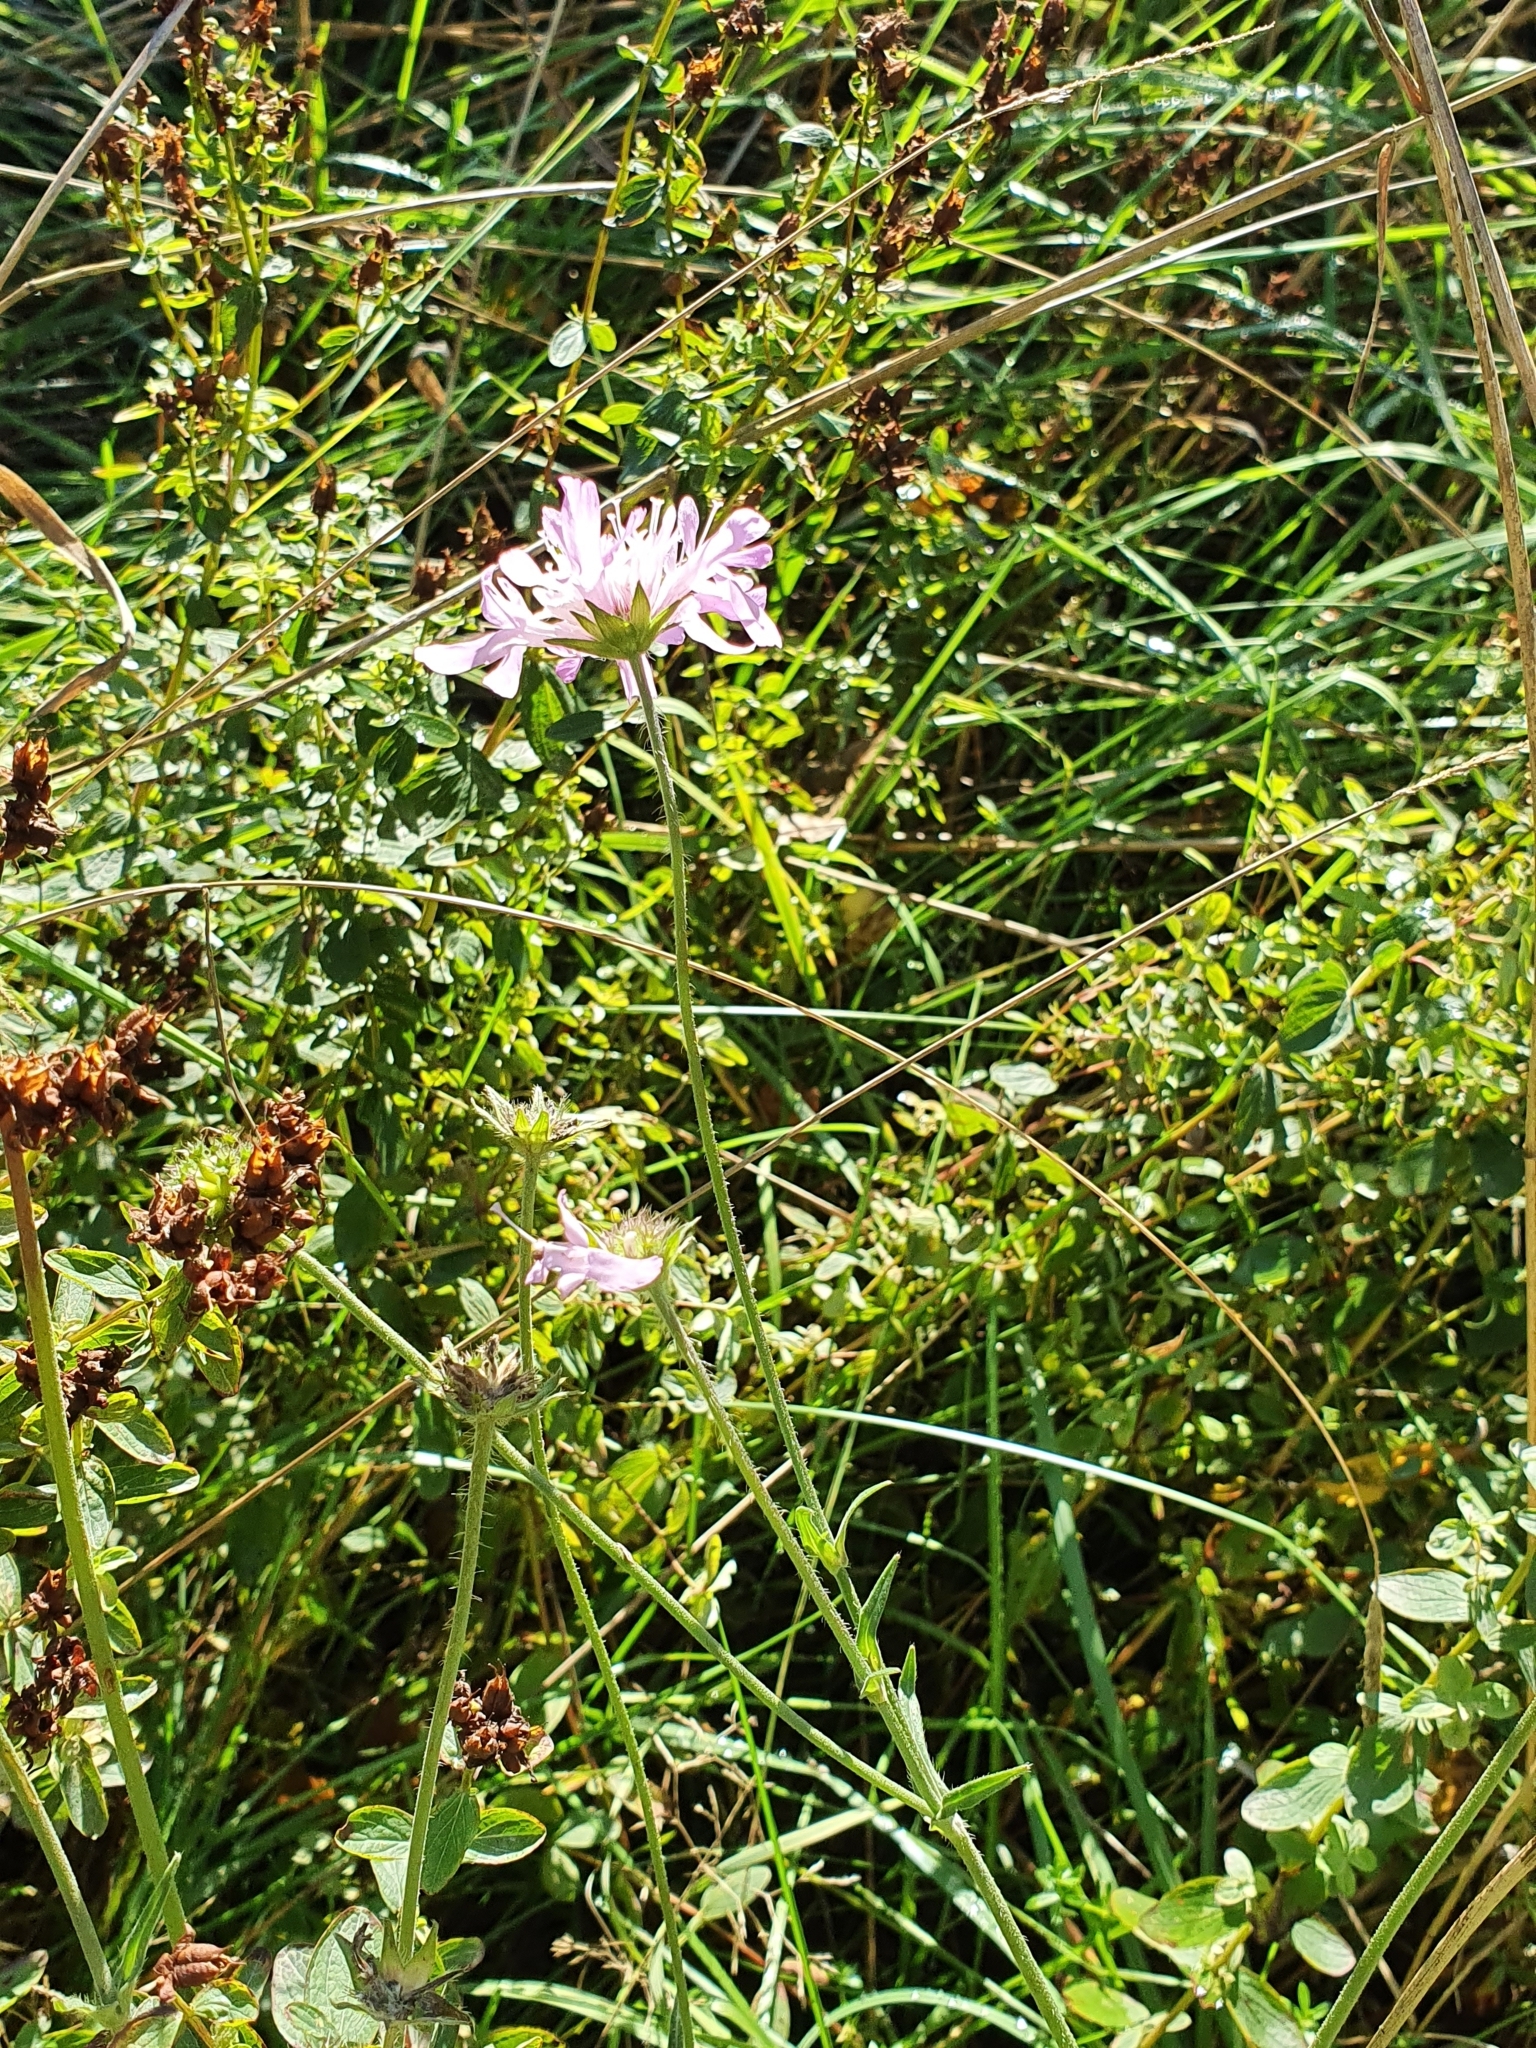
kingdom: Plantae
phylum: Tracheophyta
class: Magnoliopsida
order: Dipsacales
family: Caprifoliaceae
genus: Knautia
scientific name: Knautia arvensis
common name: Field scabiosa
